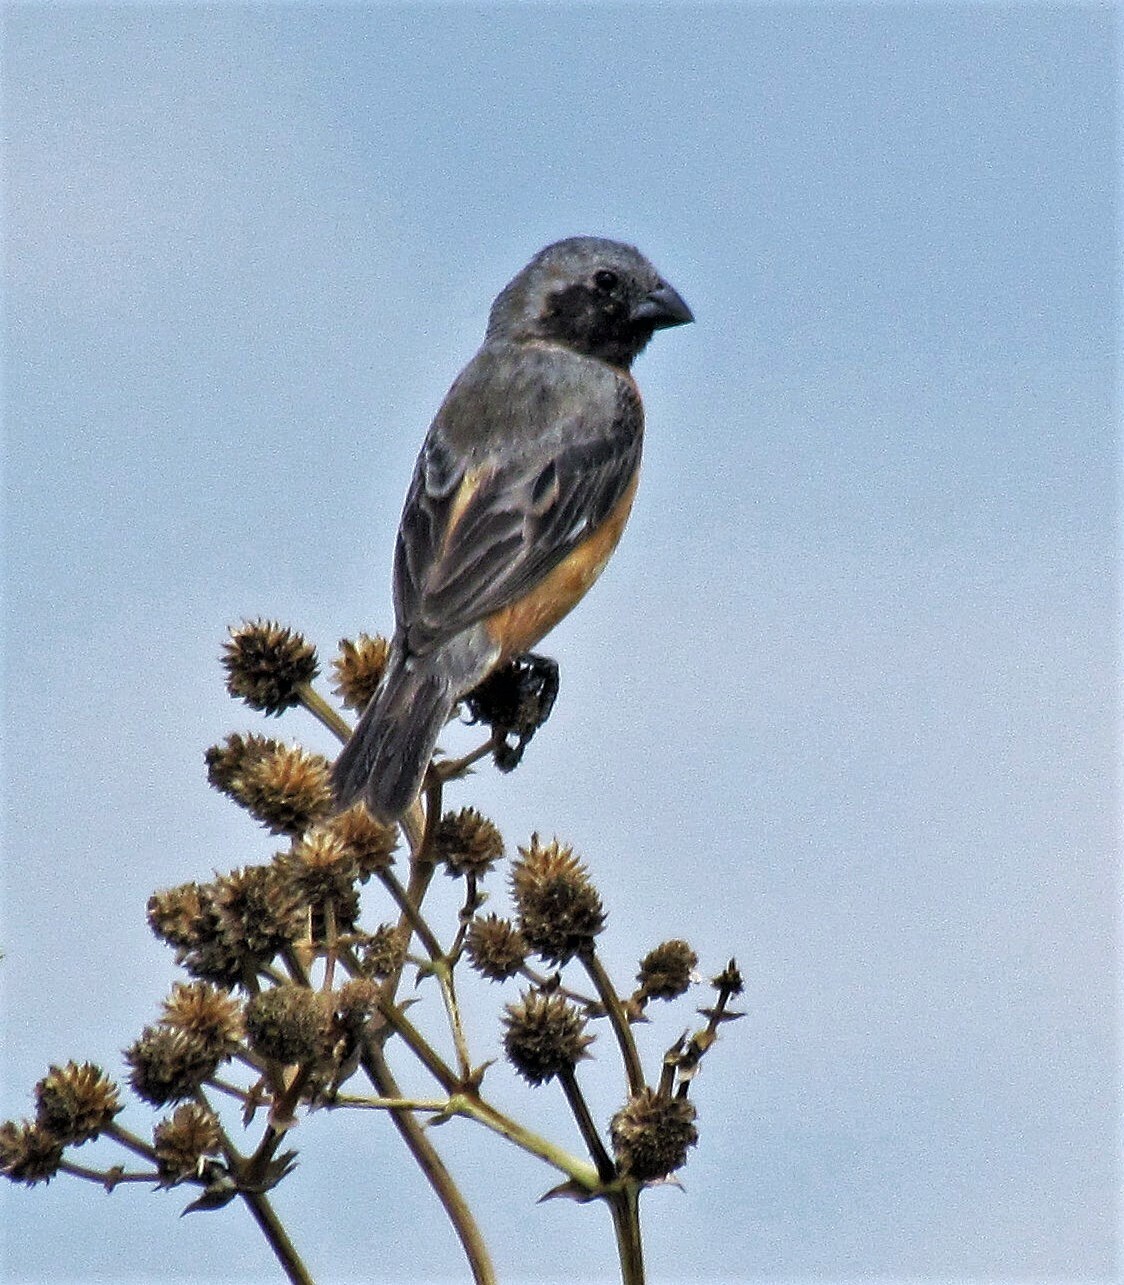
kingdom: Animalia
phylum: Chordata
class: Aves
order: Passeriformes
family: Thraupidae
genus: Sporophila
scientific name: Sporophila ruficollis
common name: Dark-throated seedeater
